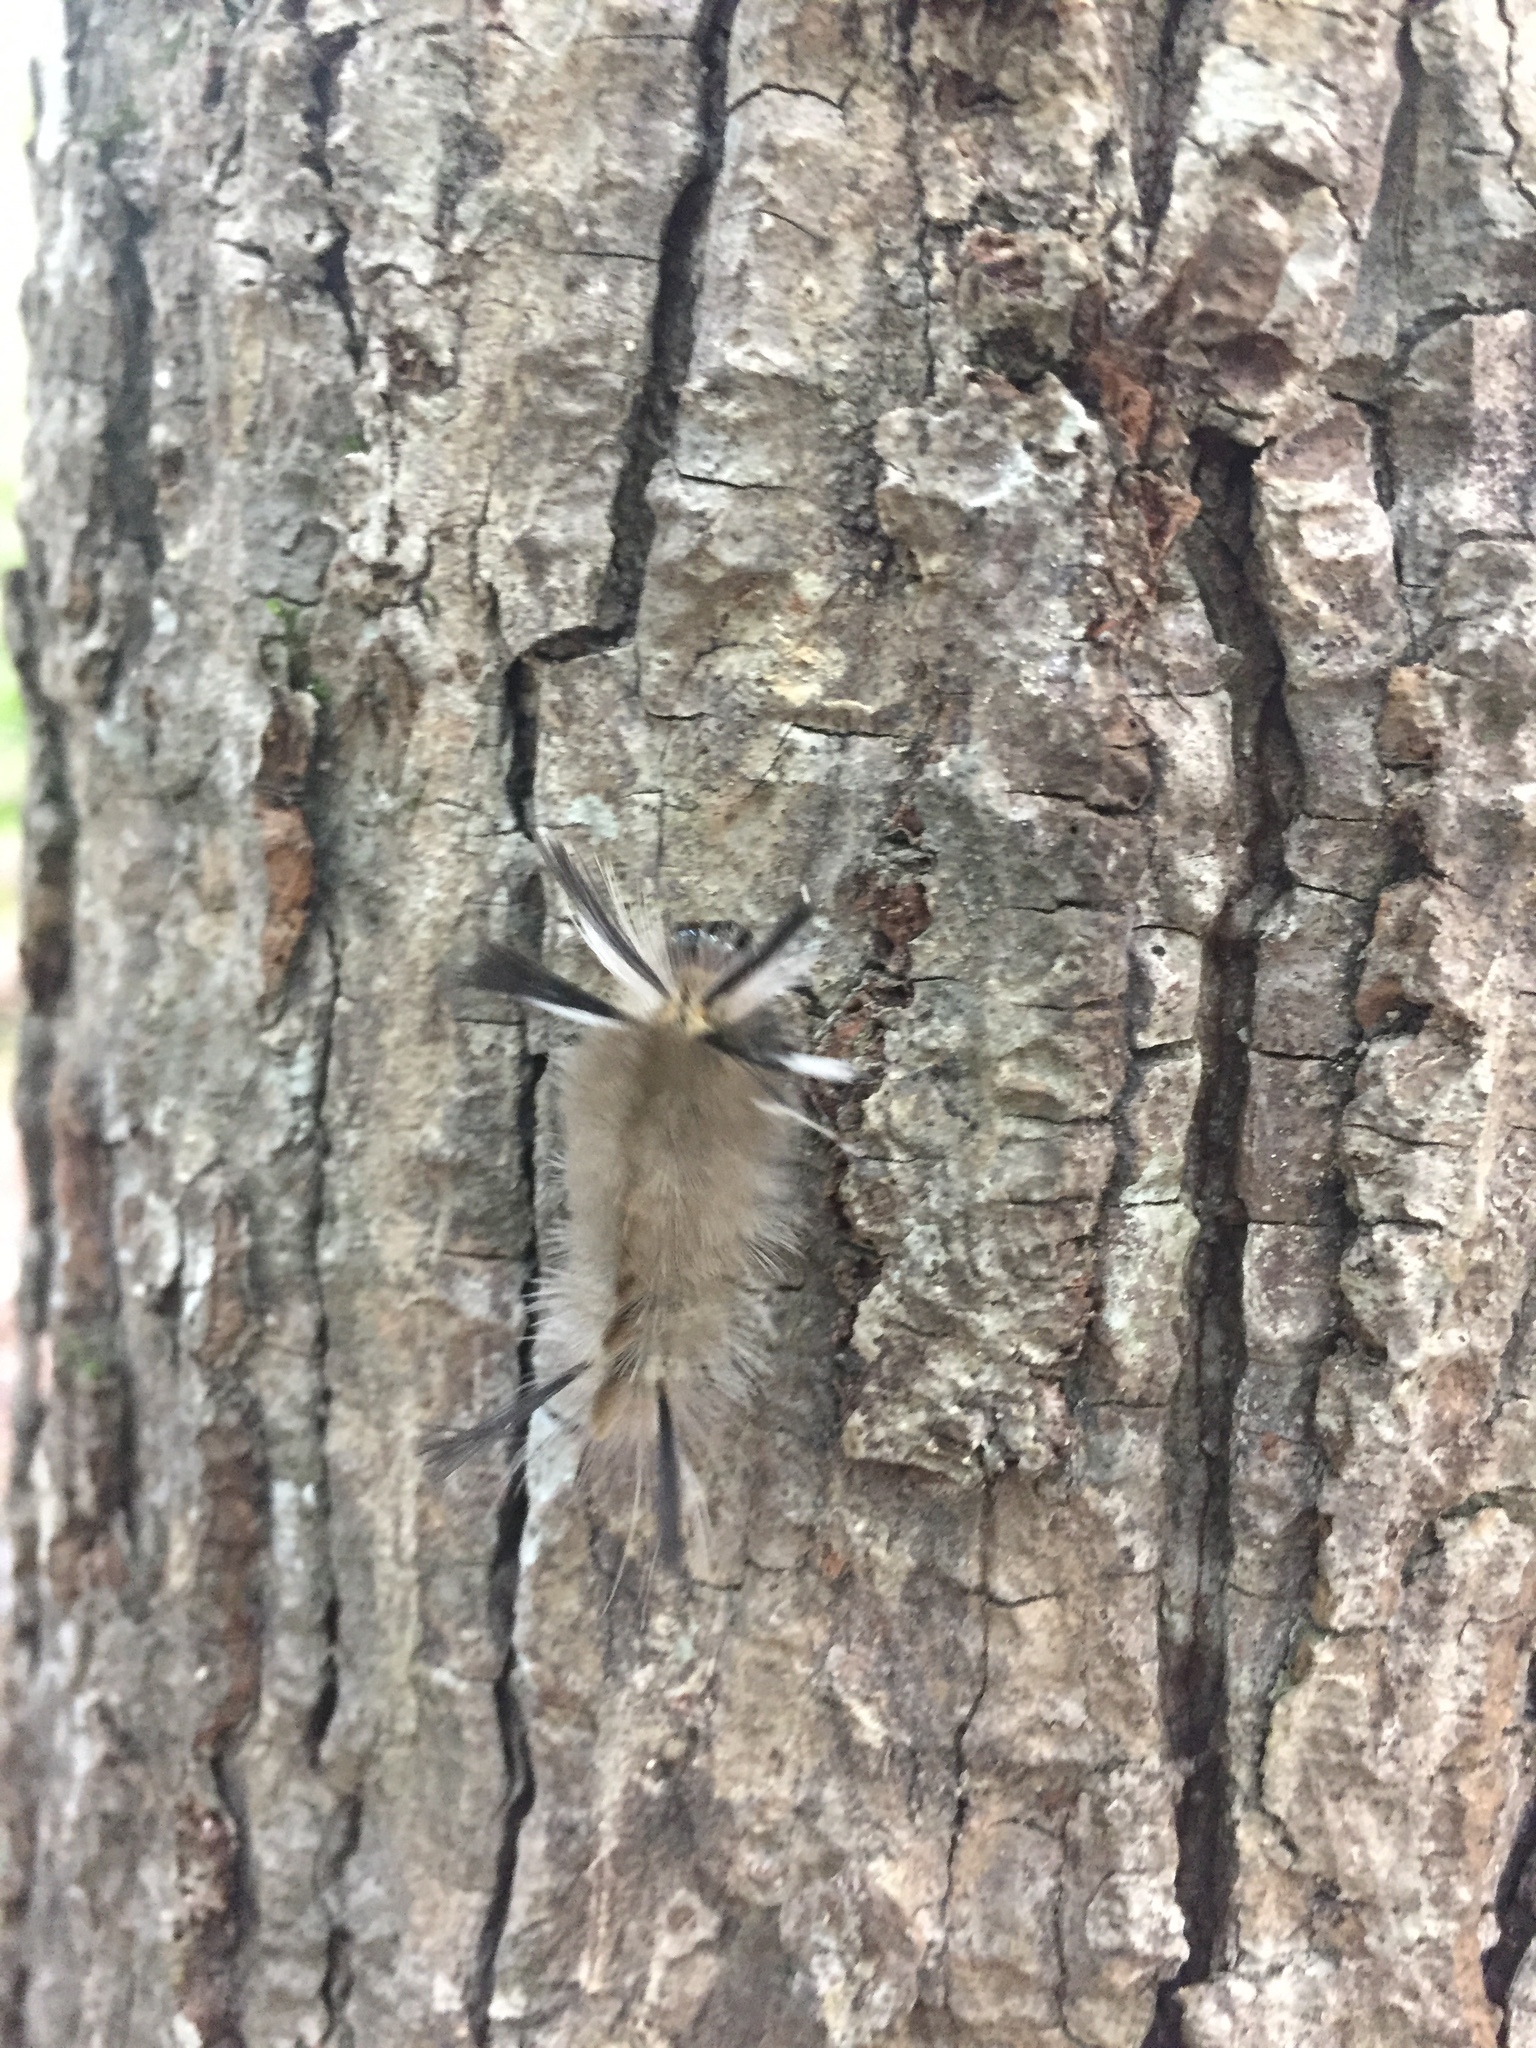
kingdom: Animalia
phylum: Arthropoda
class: Insecta
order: Lepidoptera
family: Erebidae
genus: Halysidota
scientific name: Halysidota tessellaris
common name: Banded tussock moth
